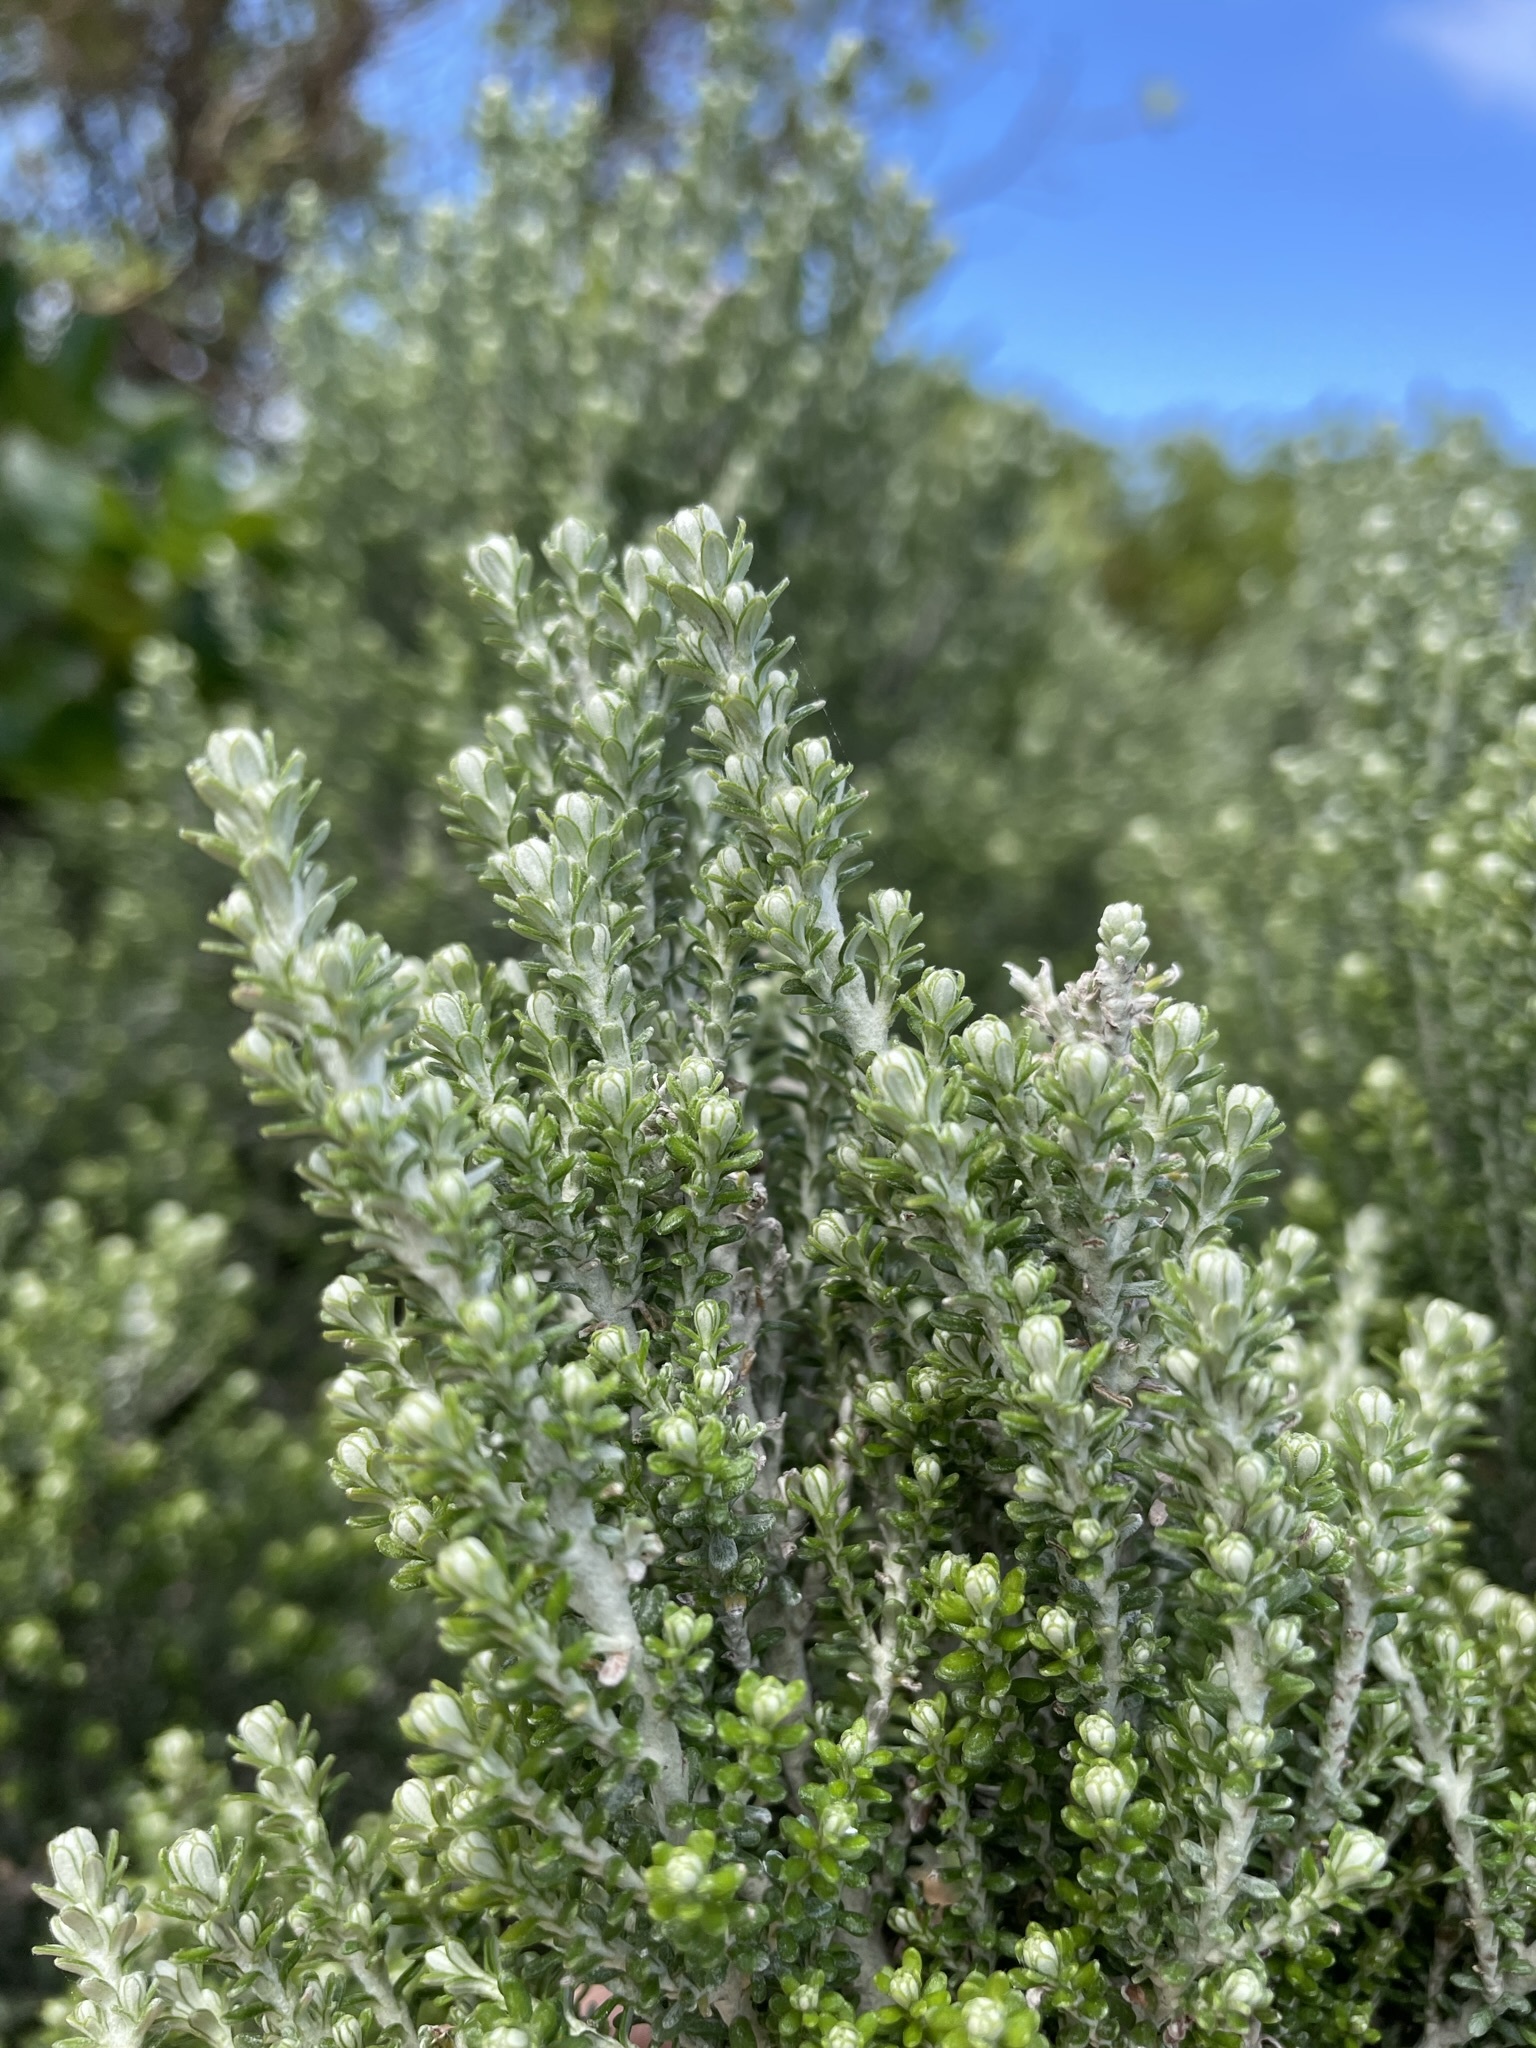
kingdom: Plantae
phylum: Tracheophyta
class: Magnoliopsida
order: Asterales
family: Asteraceae
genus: Ozothamnus
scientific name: Ozothamnus leptophyllus
